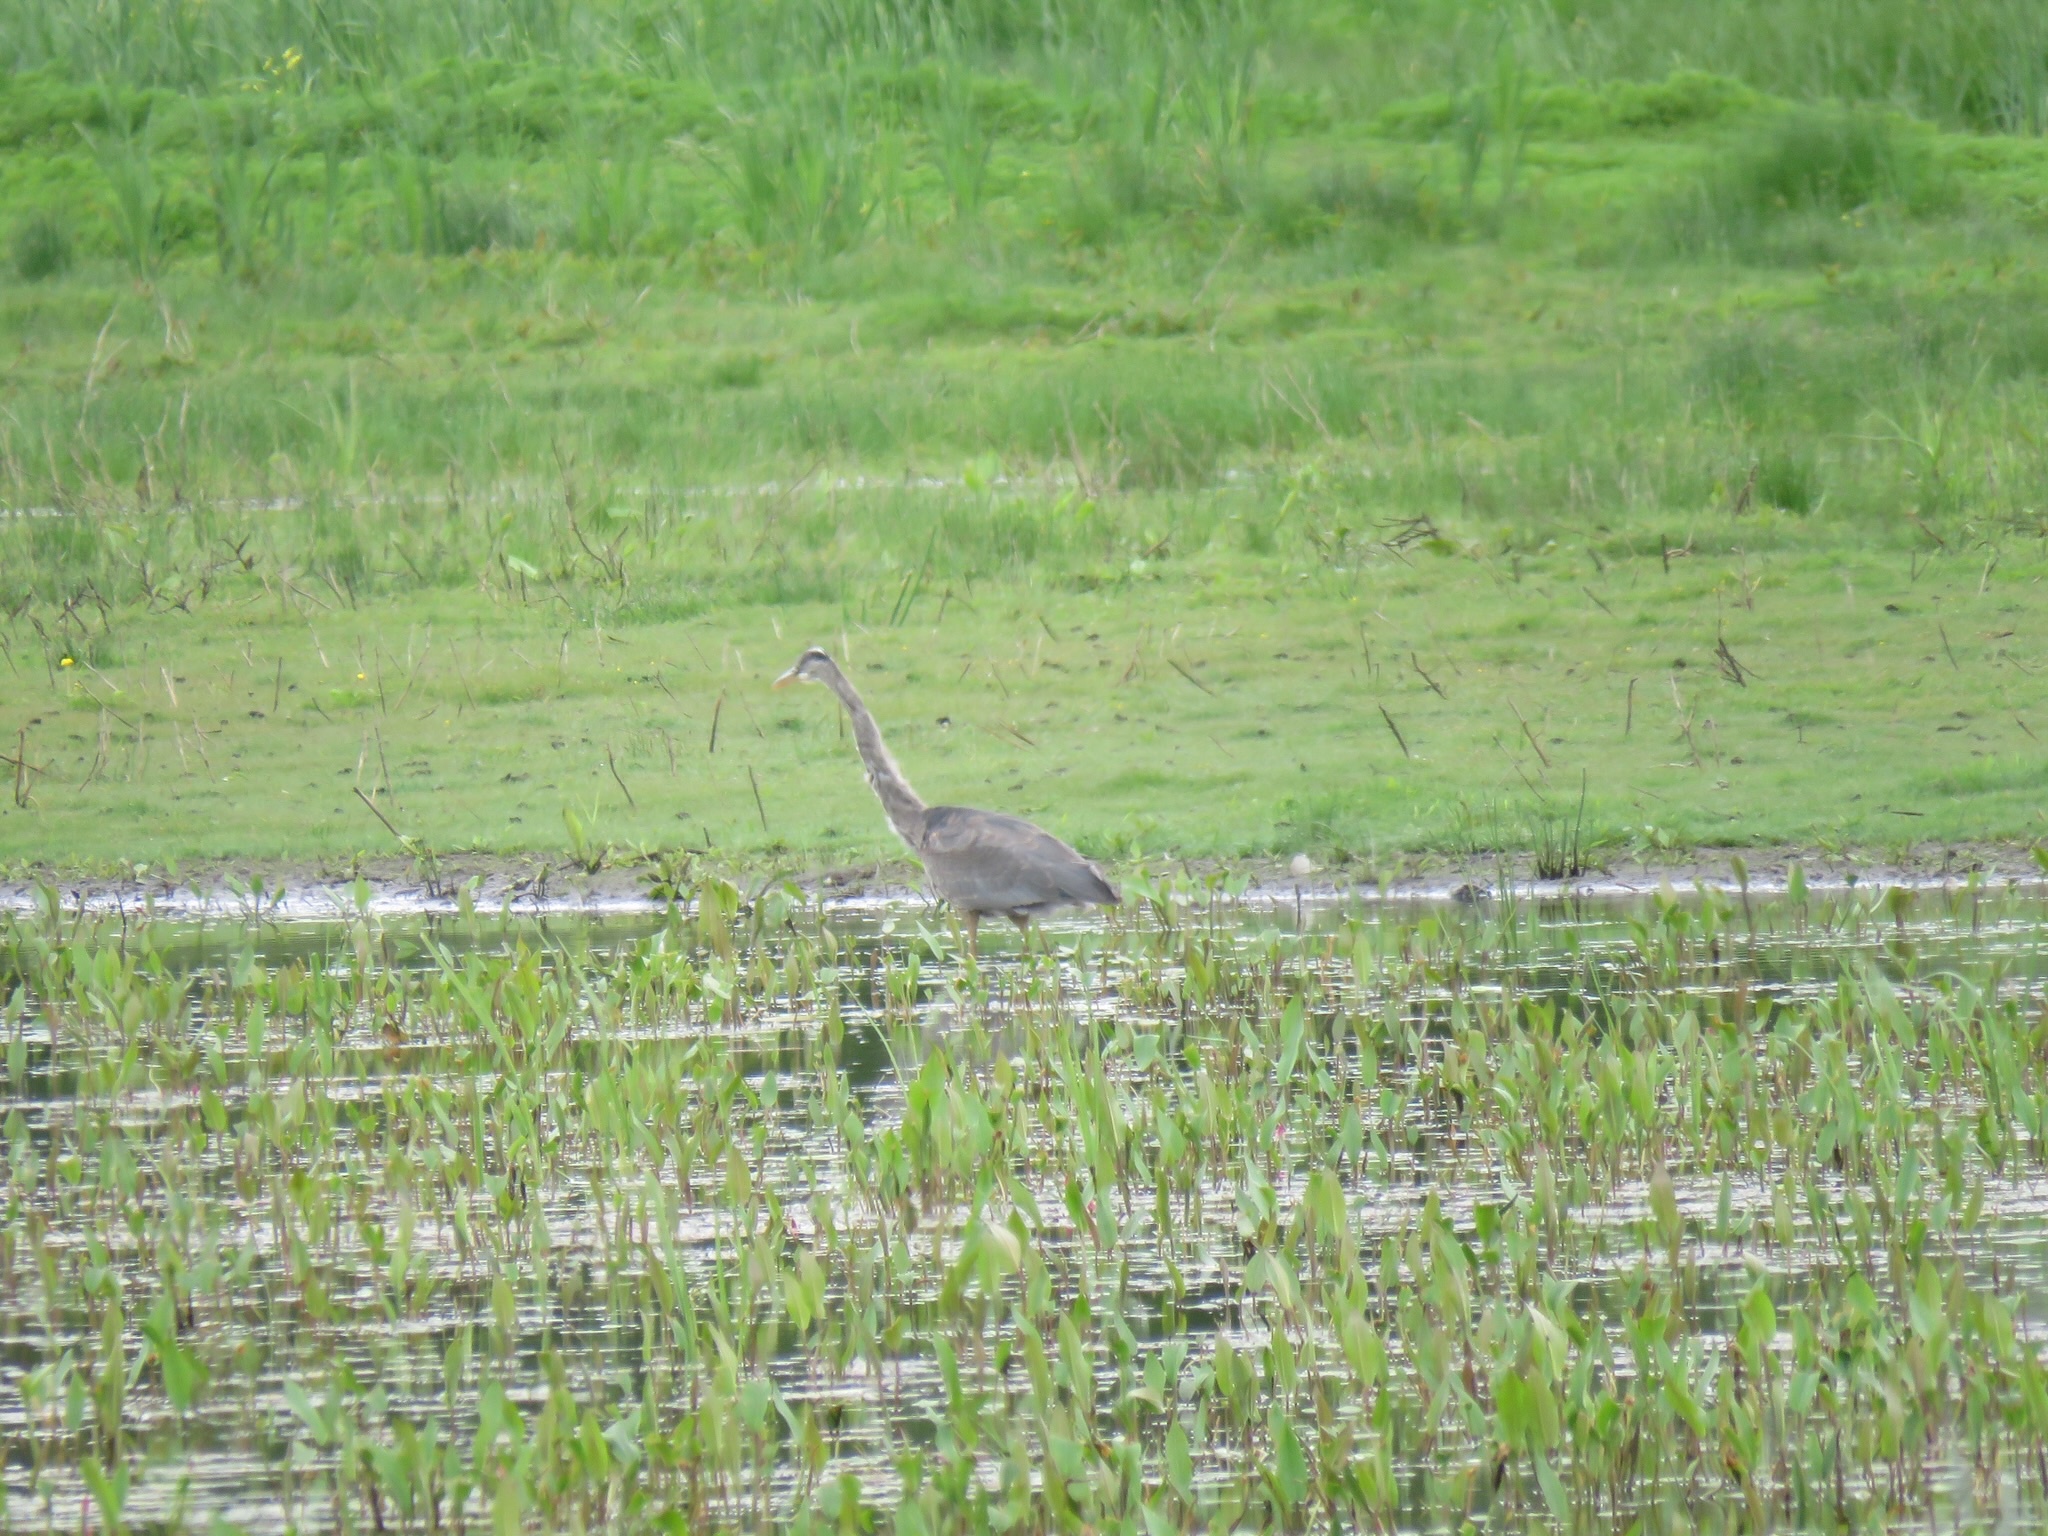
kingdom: Animalia
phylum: Chordata
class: Aves
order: Pelecaniformes
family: Ardeidae
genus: Ardea
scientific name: Ardea herodias
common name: Great blue heron
